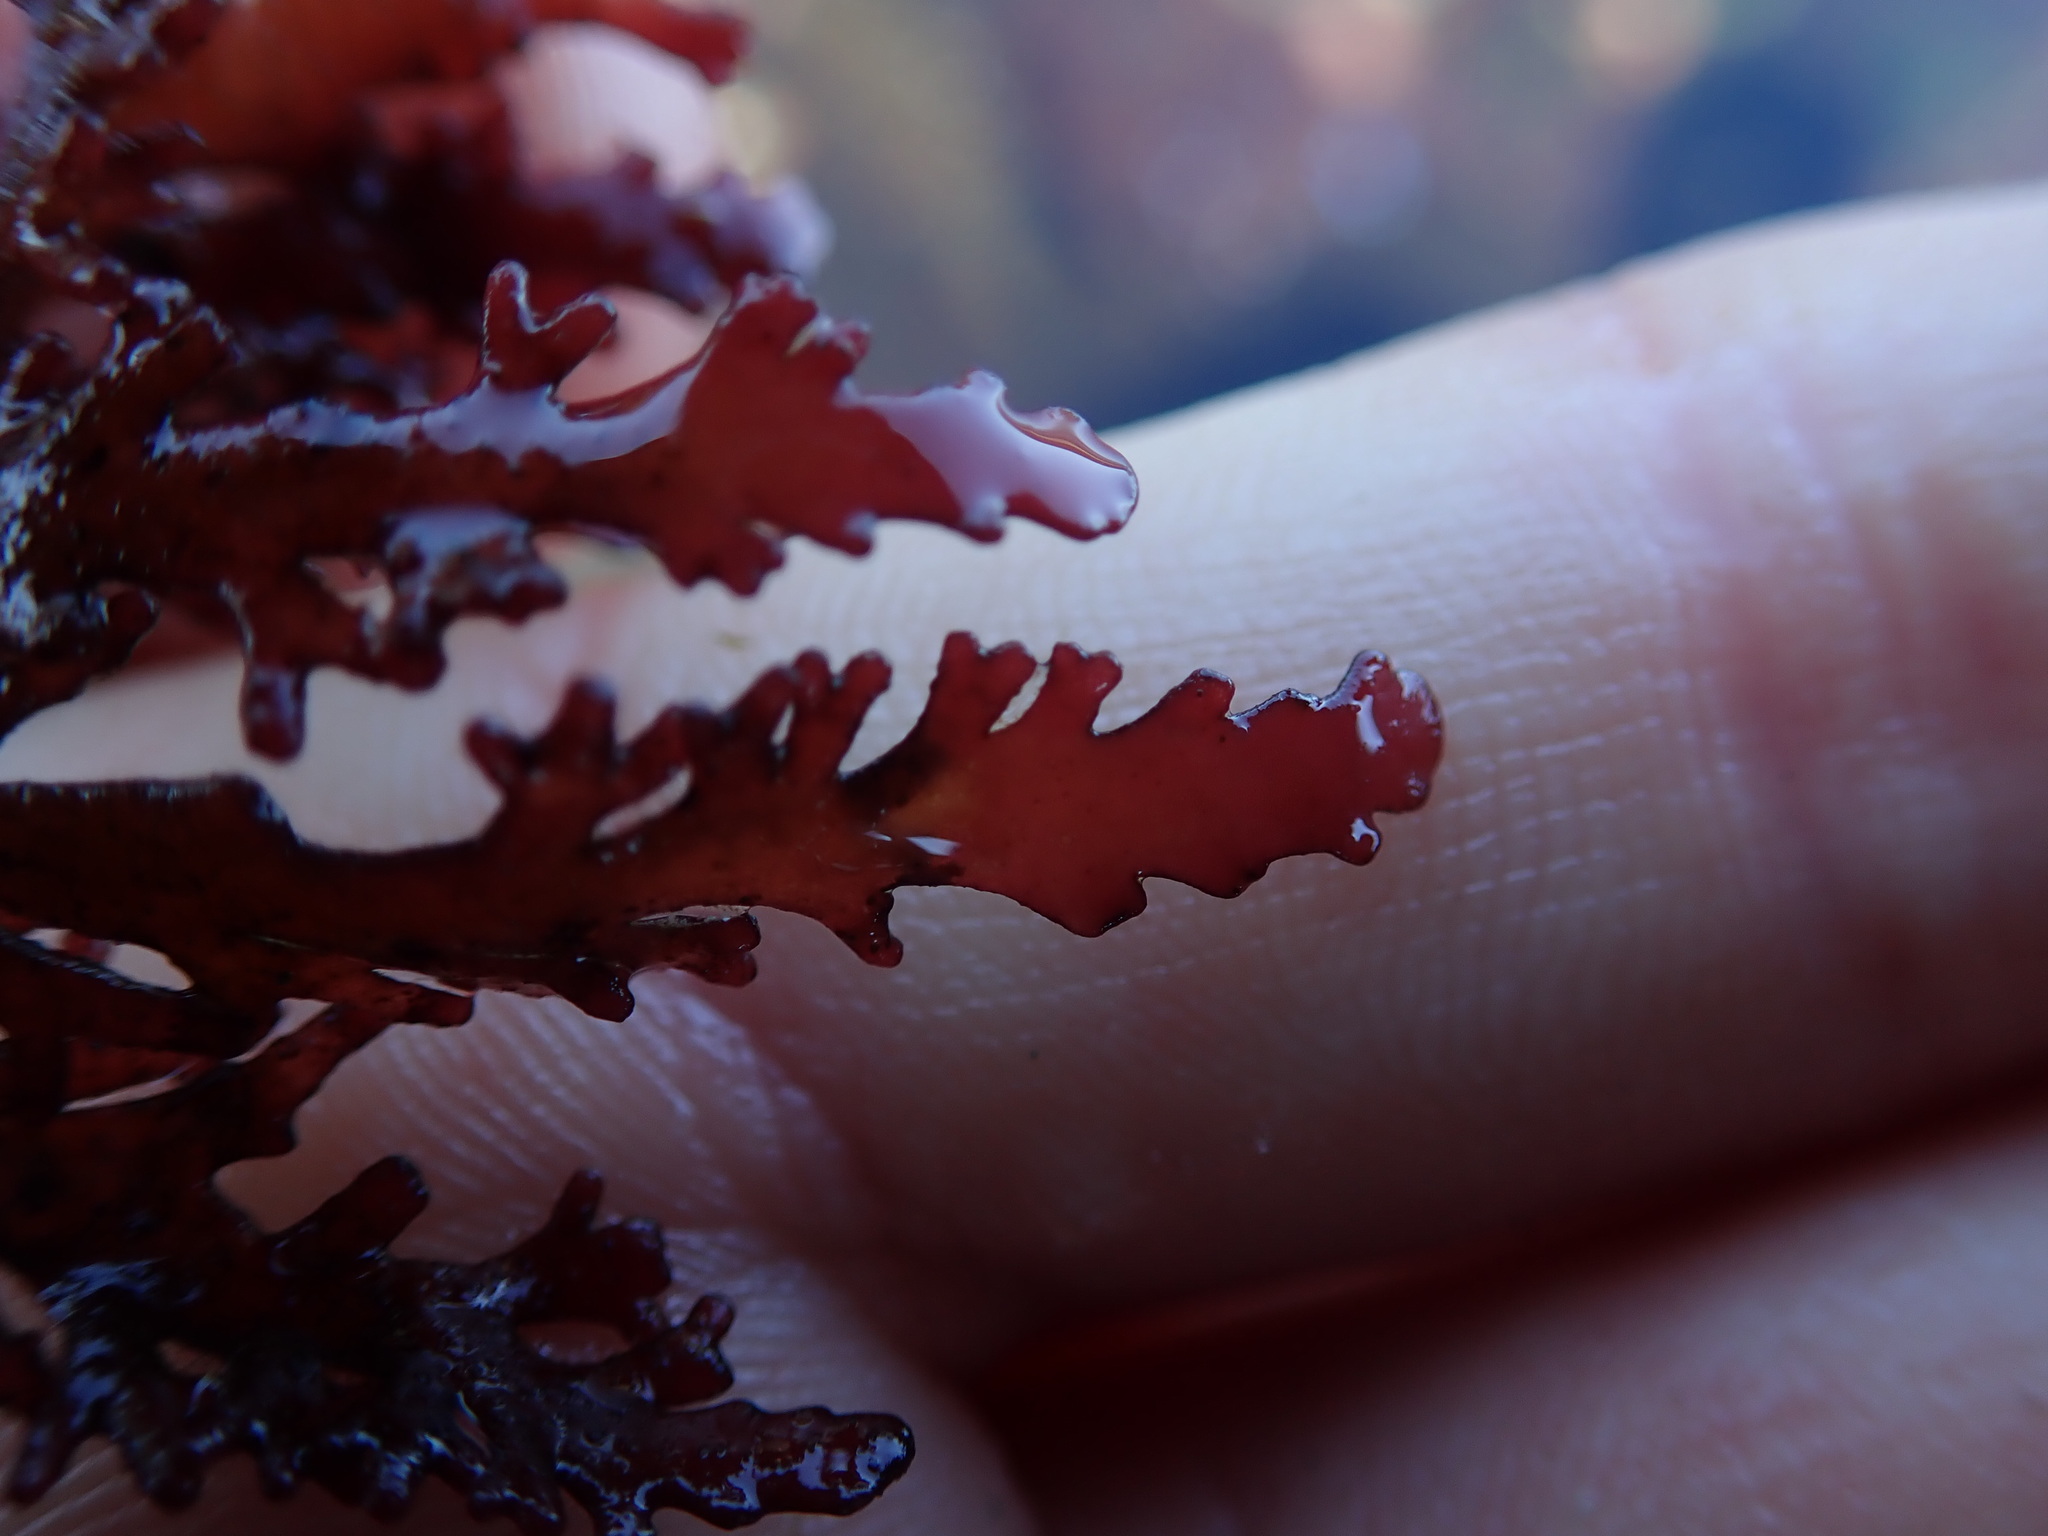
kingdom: Plantae
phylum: Rhodophyta
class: Florideophyceae
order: Ceramiales
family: Rhodomelaceae
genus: Osmundea
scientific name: Osmundea spectabilis
